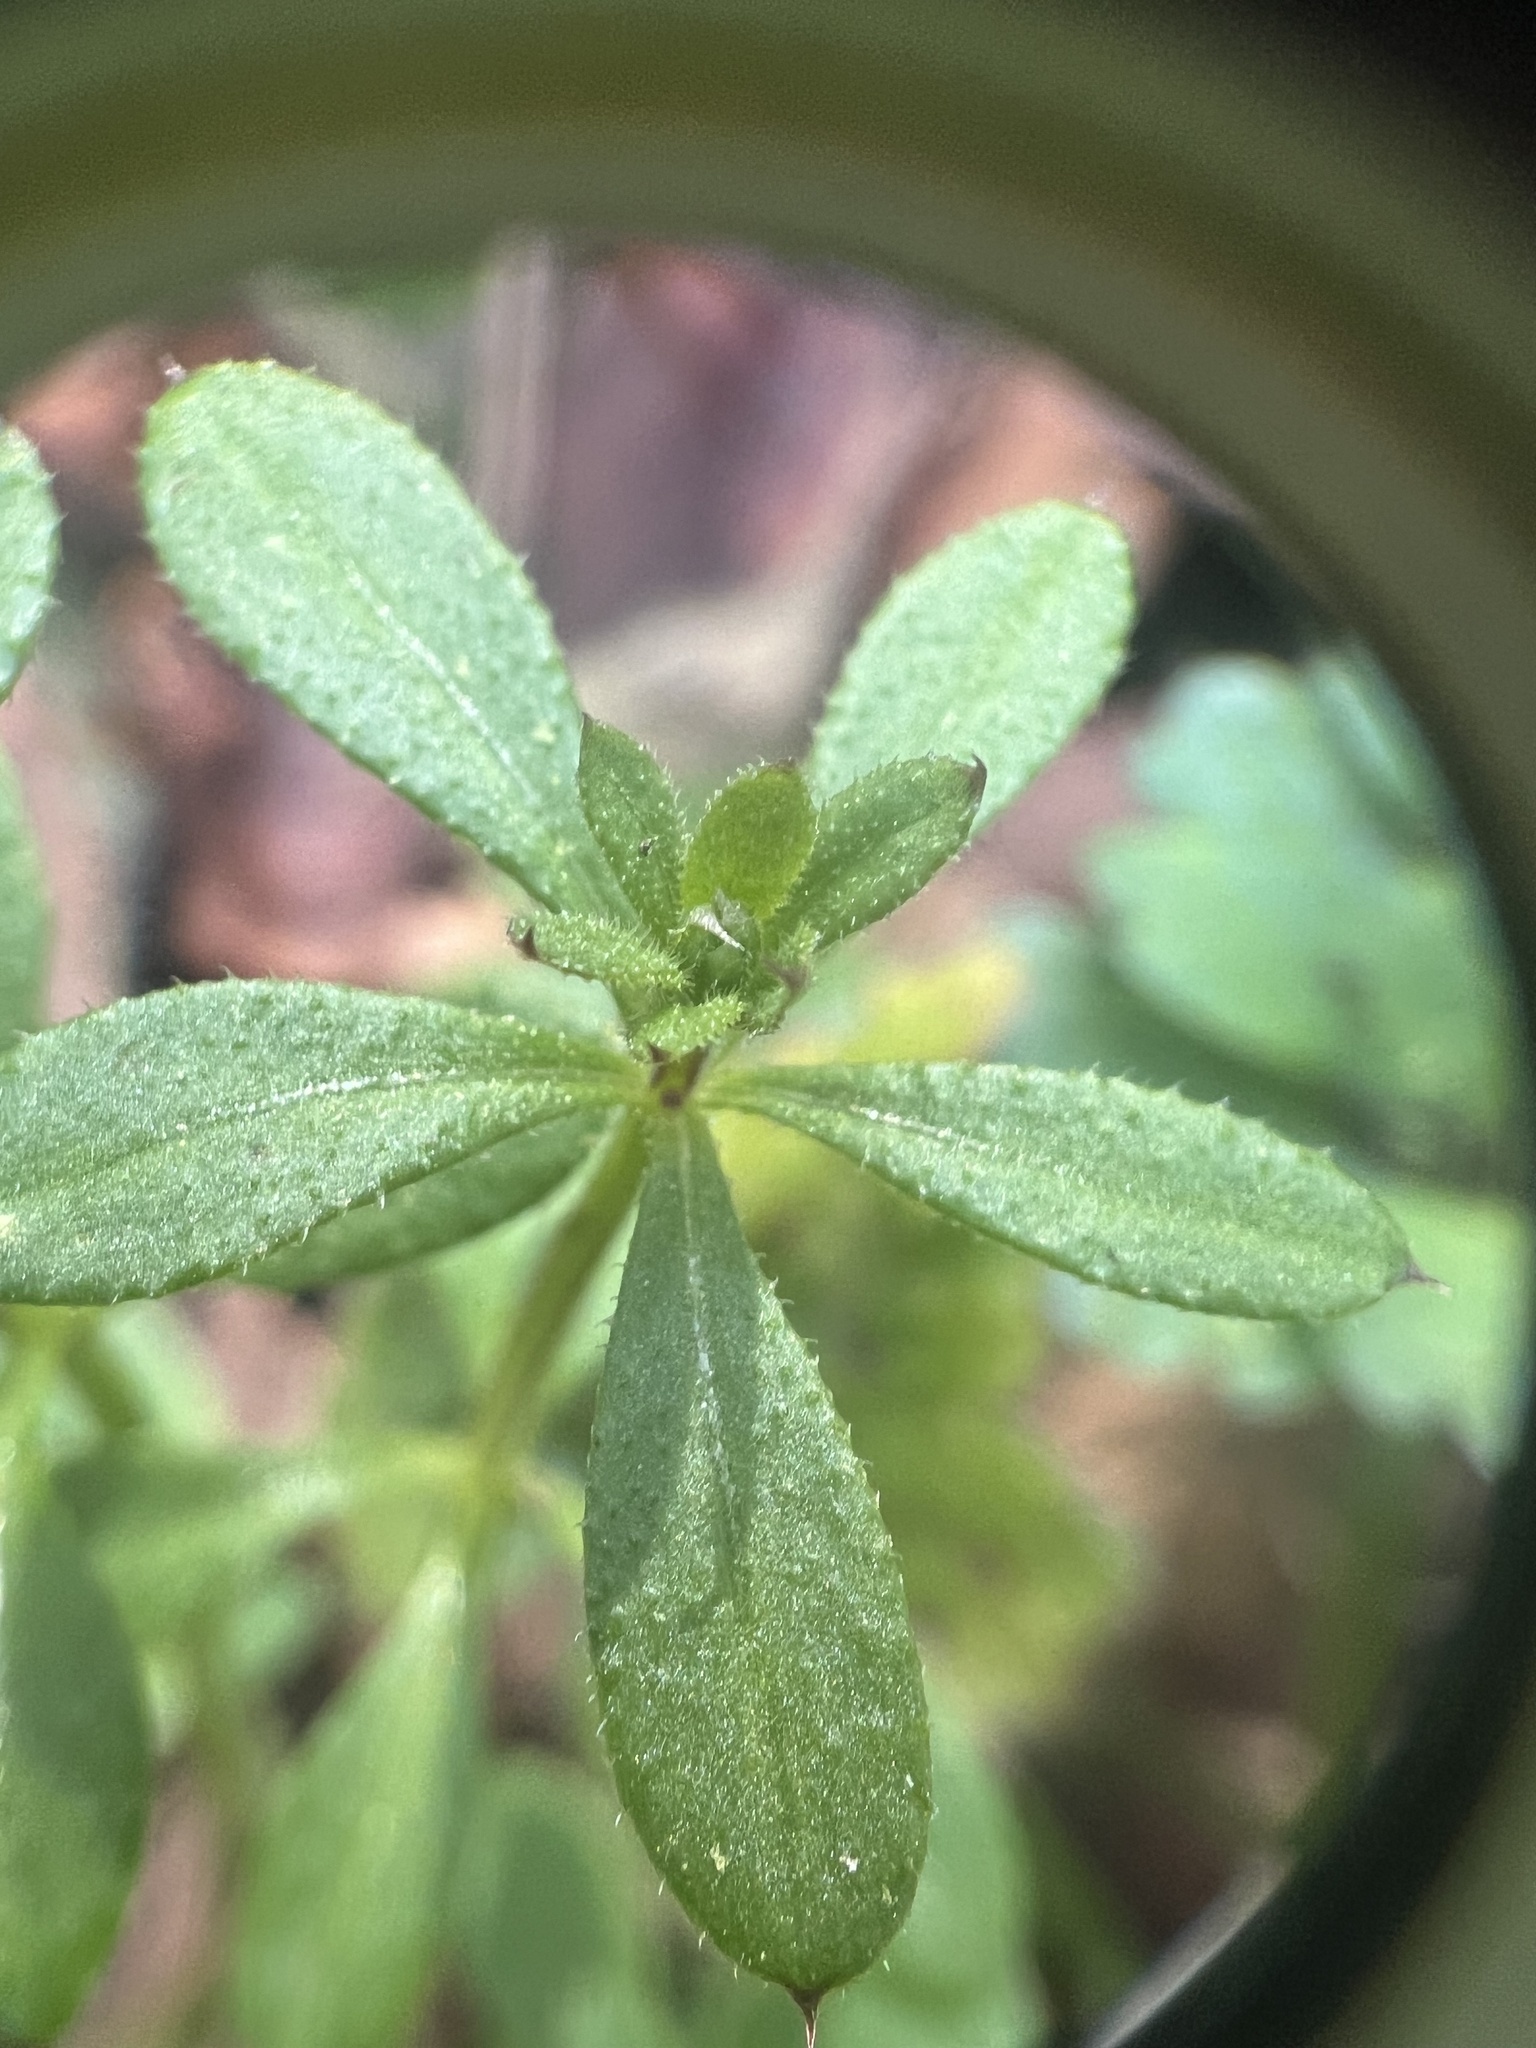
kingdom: Plantae
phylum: Tracheophyta
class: Magnoliopsida
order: Gentianales
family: Rubiaceae
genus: Galium
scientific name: Galium aparine
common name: Cleavers
